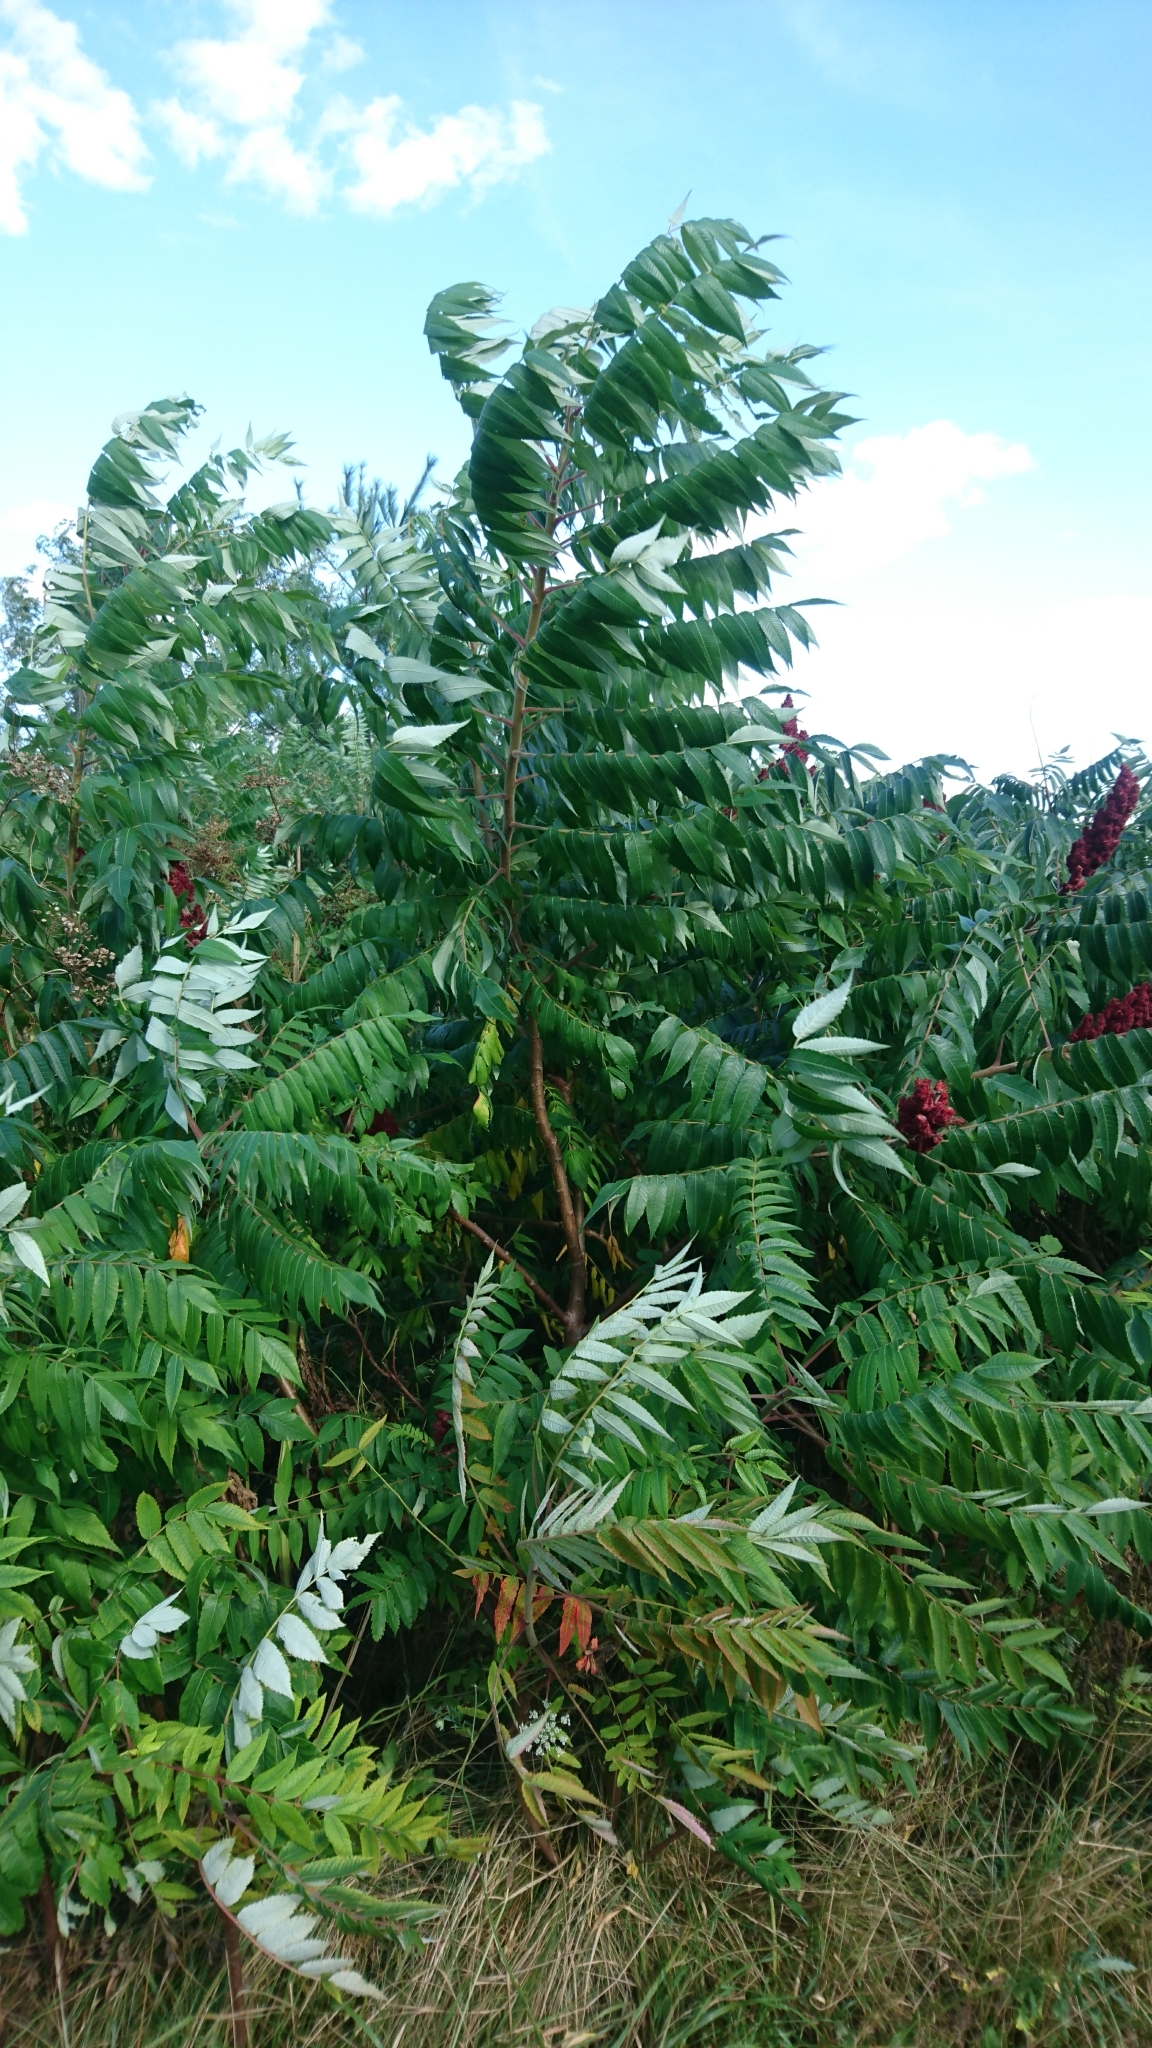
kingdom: Plantae
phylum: Tracheophyta
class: Magnoliopsida
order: Sapindales
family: Anacardiaceae
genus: Rhus
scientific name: Rhus typhina
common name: Staghorn sumac
